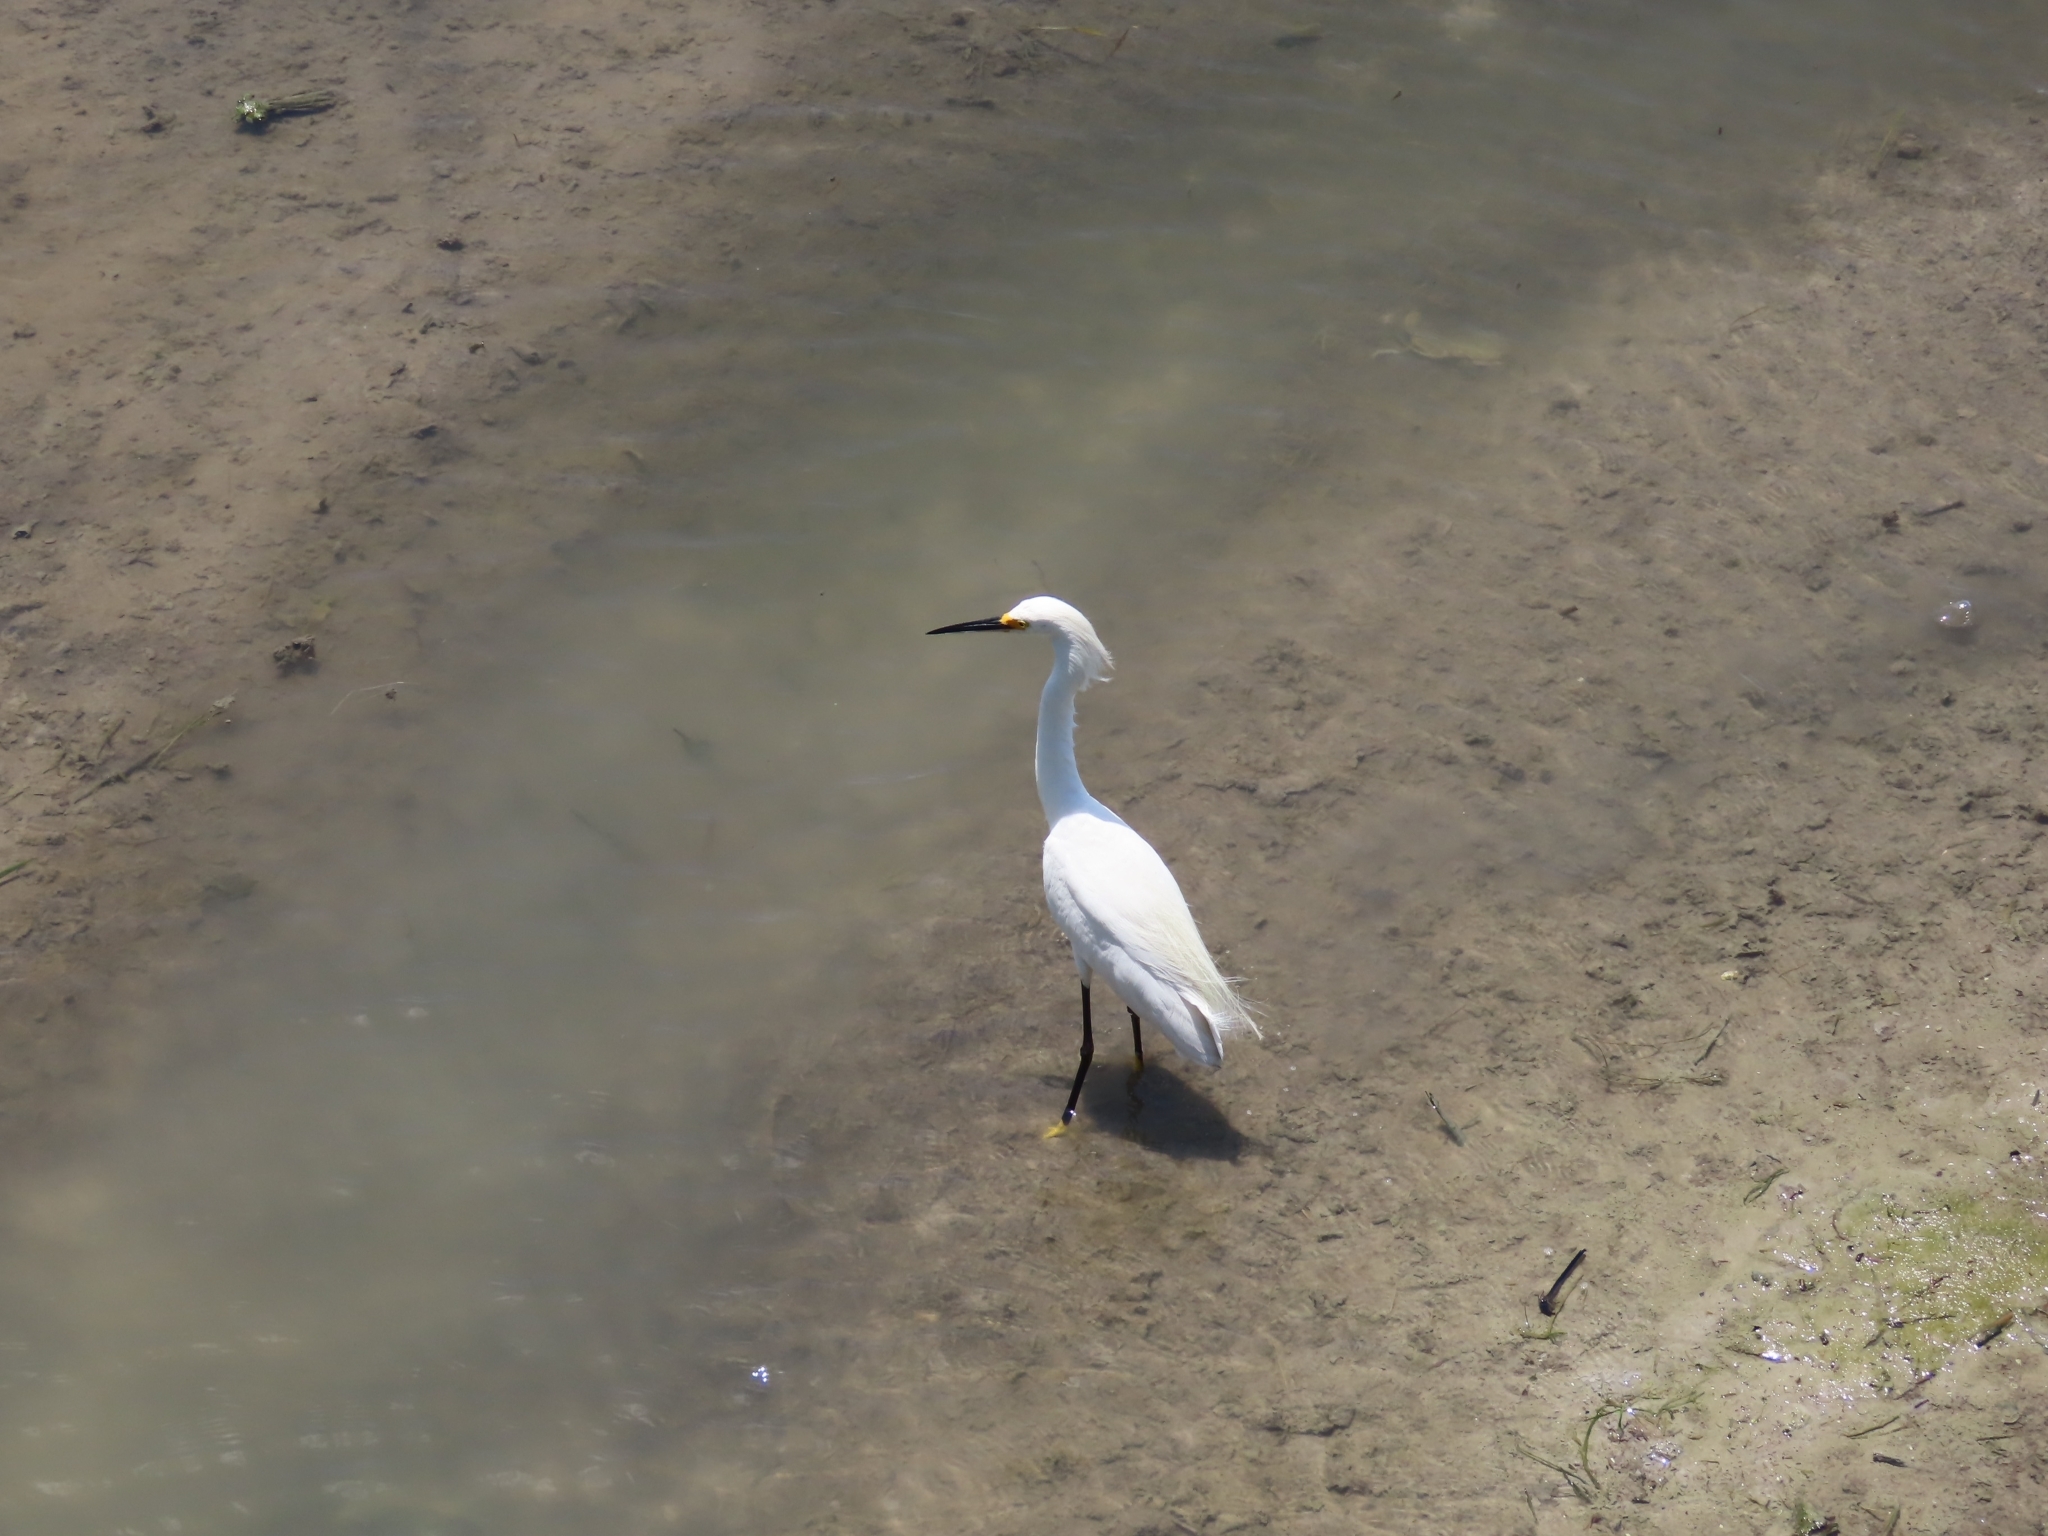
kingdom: Animalia
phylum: Chordata
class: Aves
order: Pelecaniformes
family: Ardeidae
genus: Egretta
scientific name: Egretta thula
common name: Snowy egret
